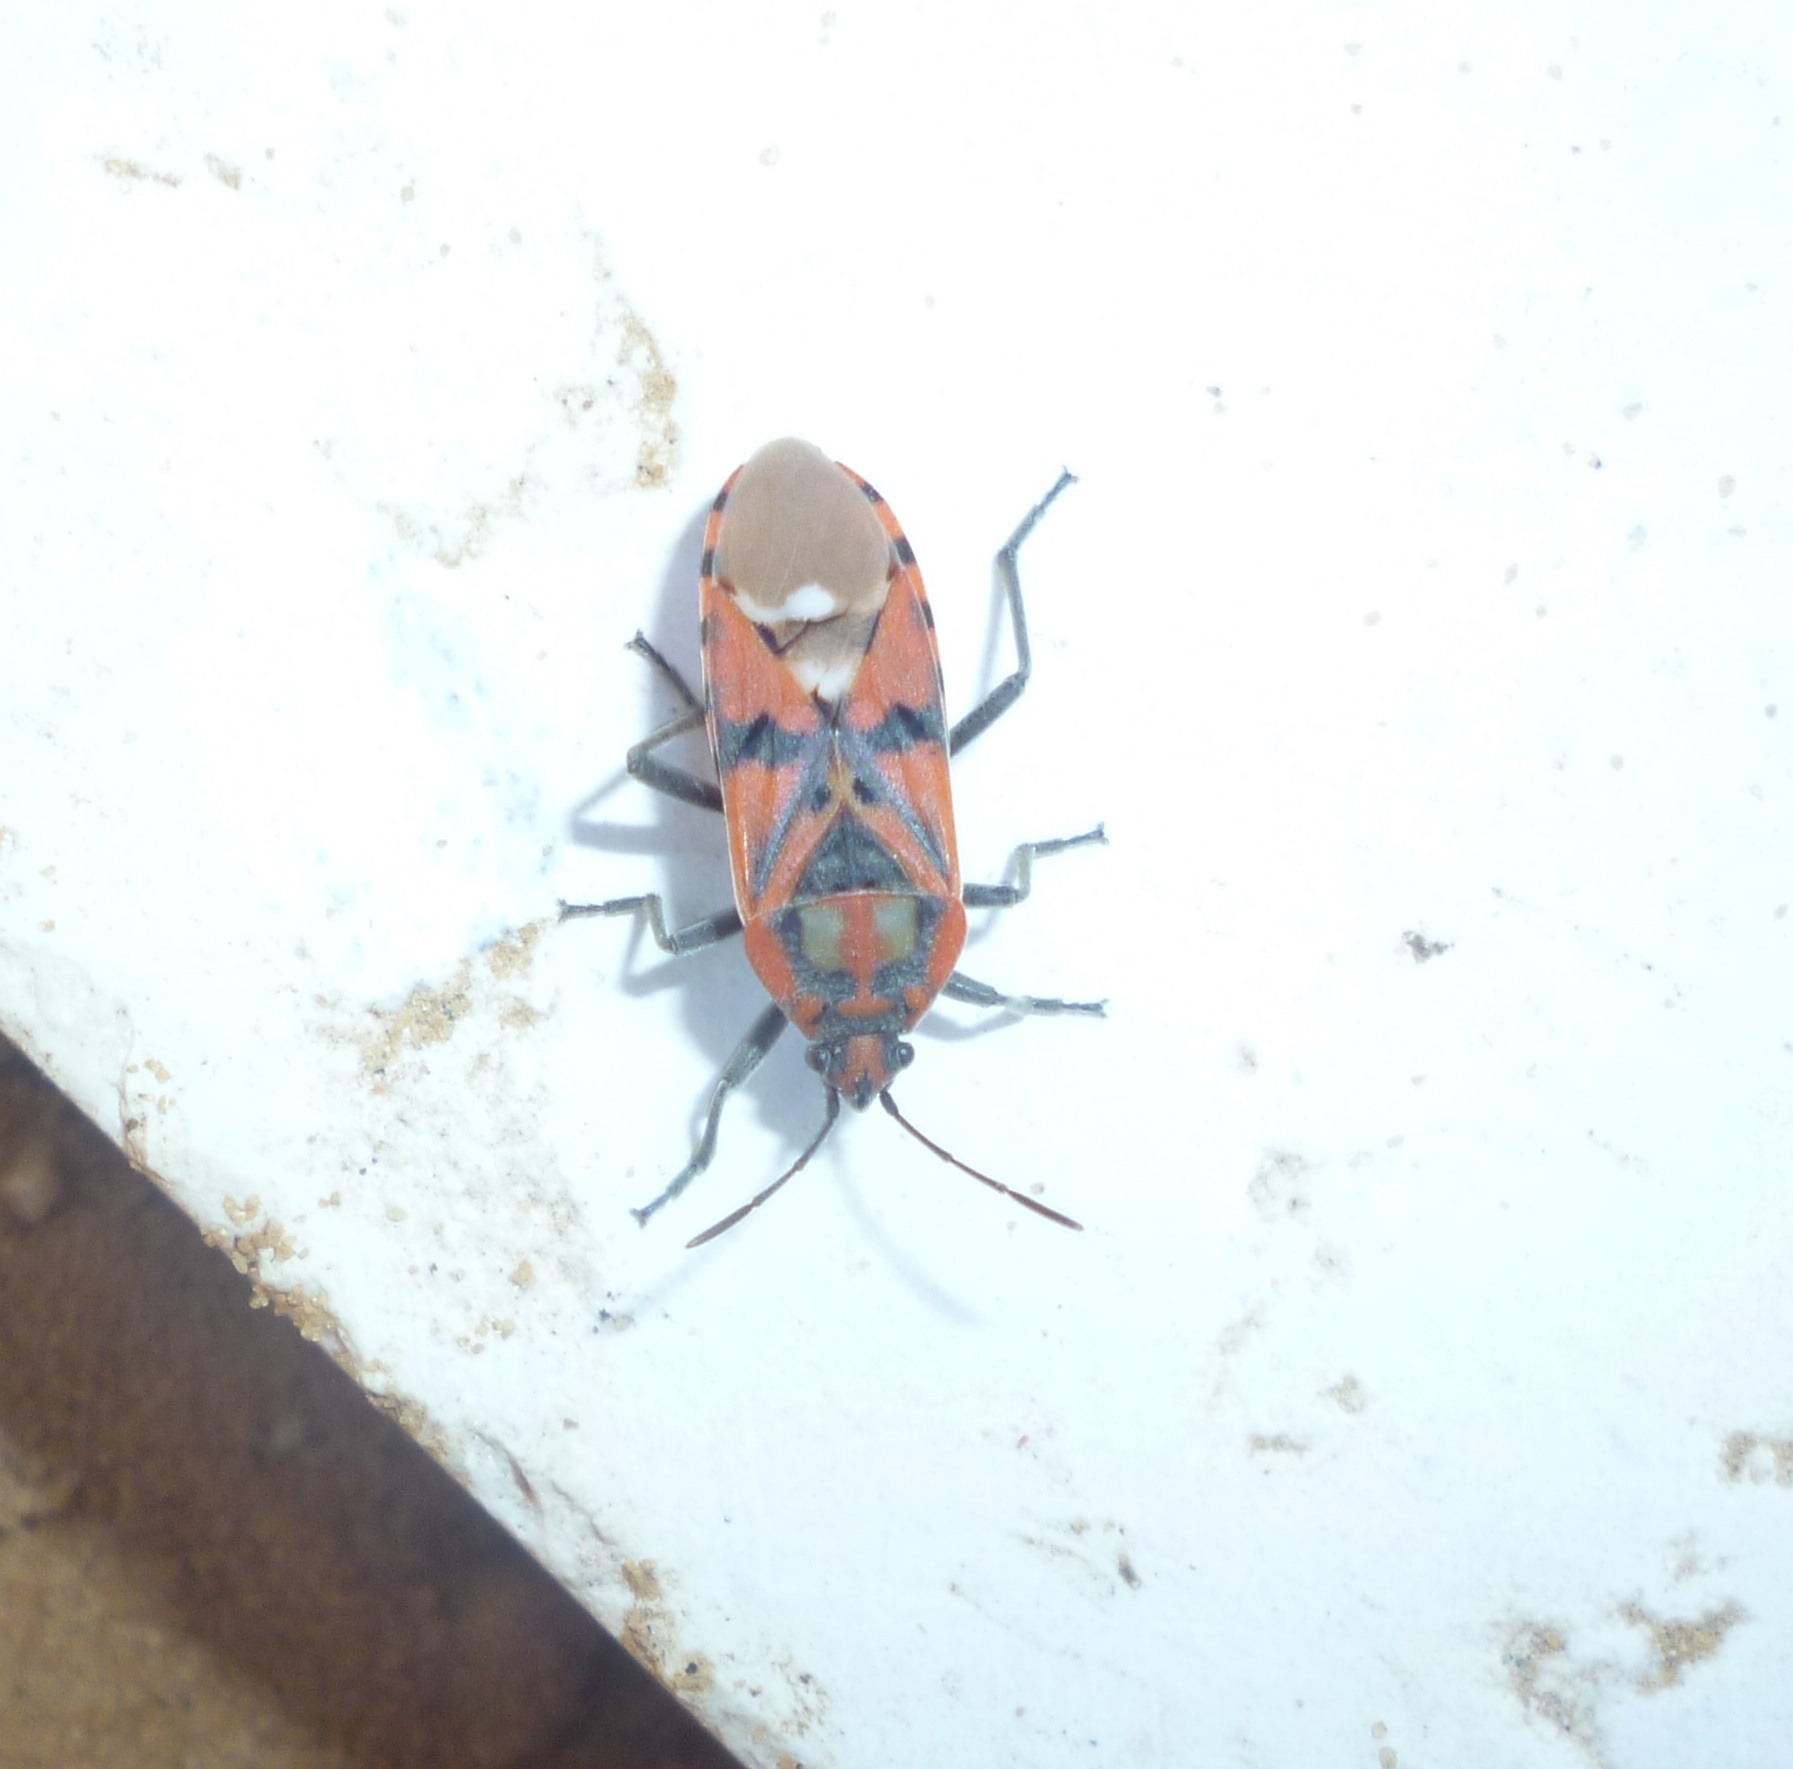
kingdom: Animalia
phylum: Arthropoda
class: Insecta
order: Hemiptera
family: Lygaeidae
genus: Spilostethus
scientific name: Spilostethus pandurus
